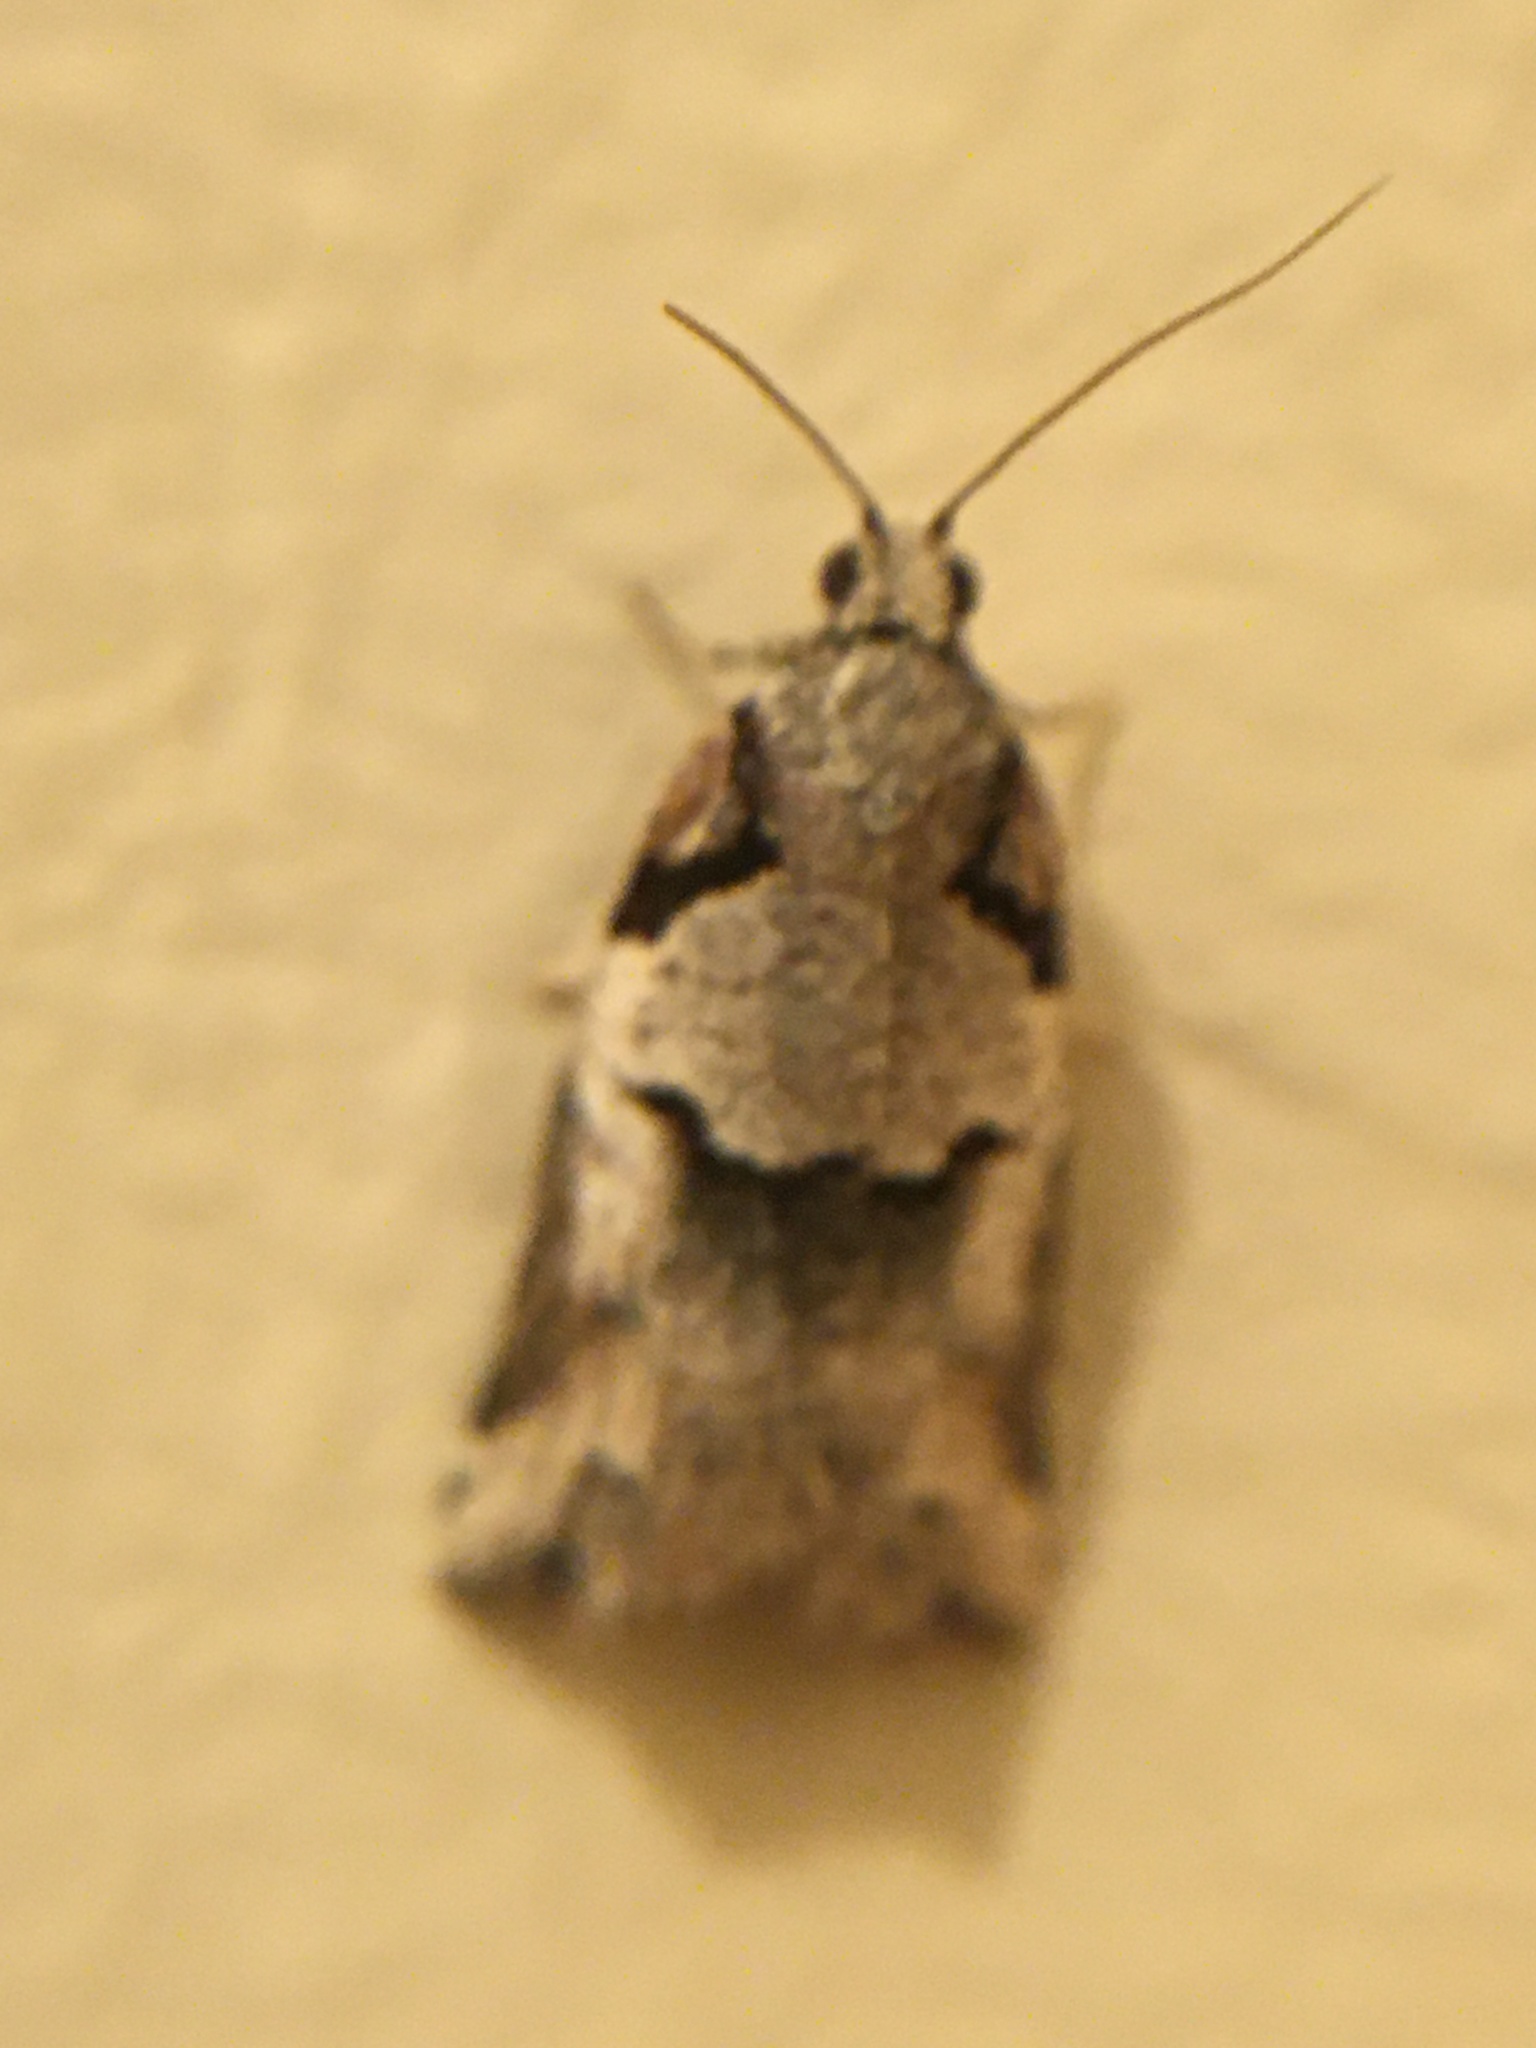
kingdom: Animalia
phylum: Arthropoda
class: Insecta
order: Lepidoptera
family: Tortricidae
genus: Harmologa
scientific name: Harmologa amplexana
